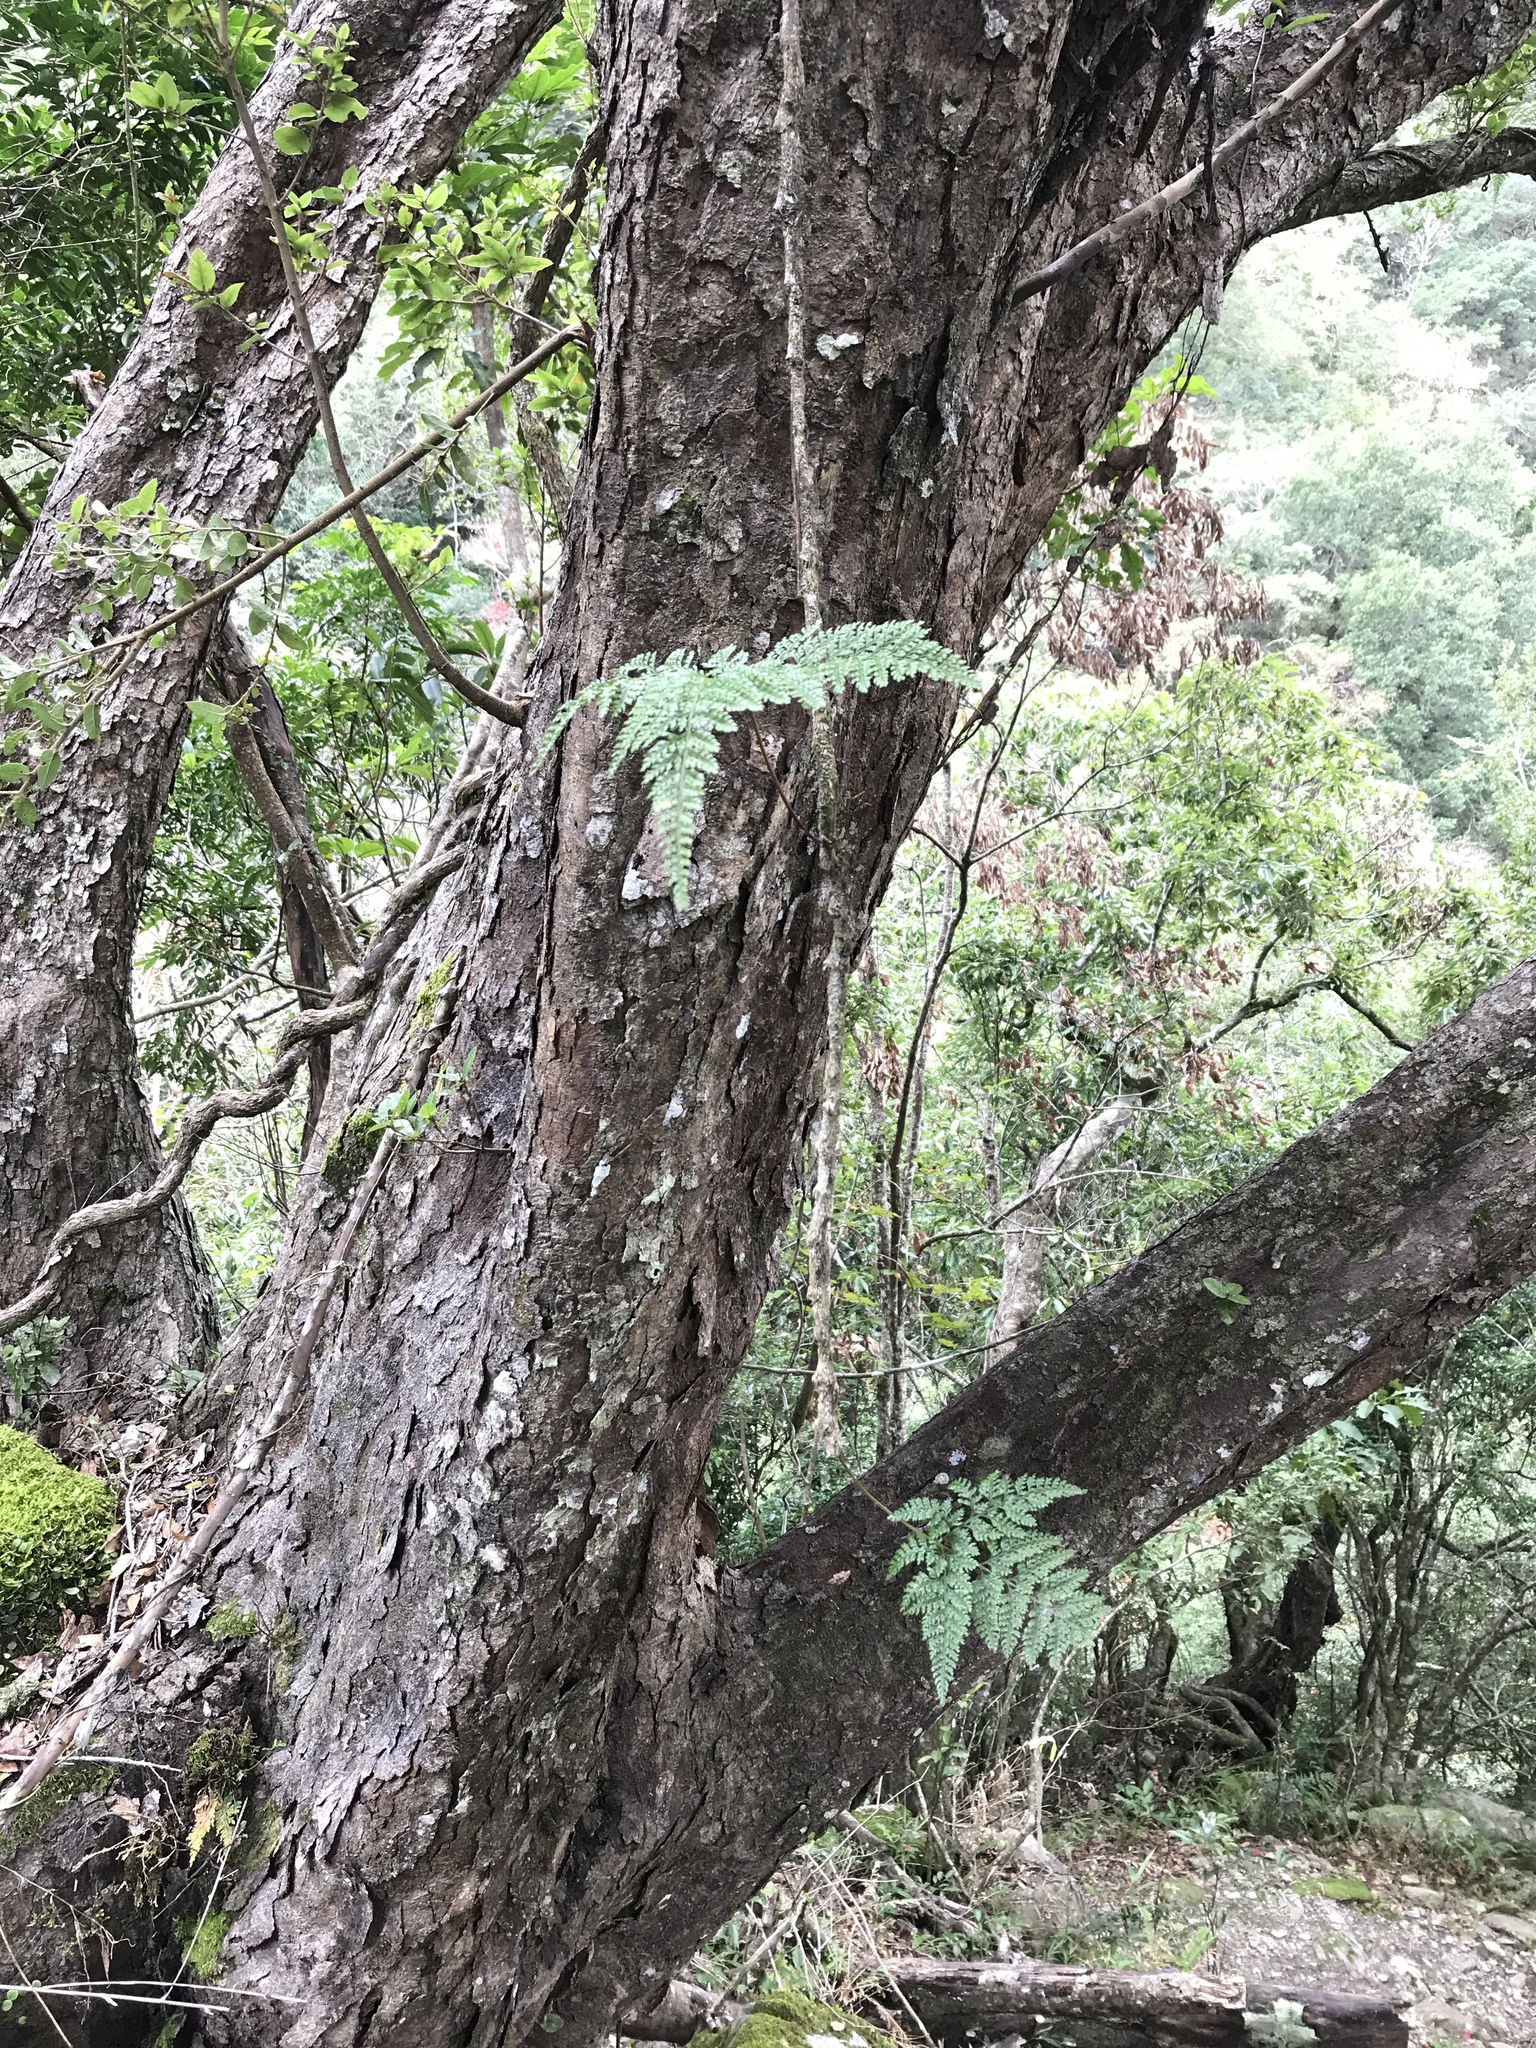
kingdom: Plantae
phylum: Tracheophyta
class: Polypodiopsida
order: Polypodiales
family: Davalliaceae
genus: Davallia
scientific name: Davallia griffithiana
